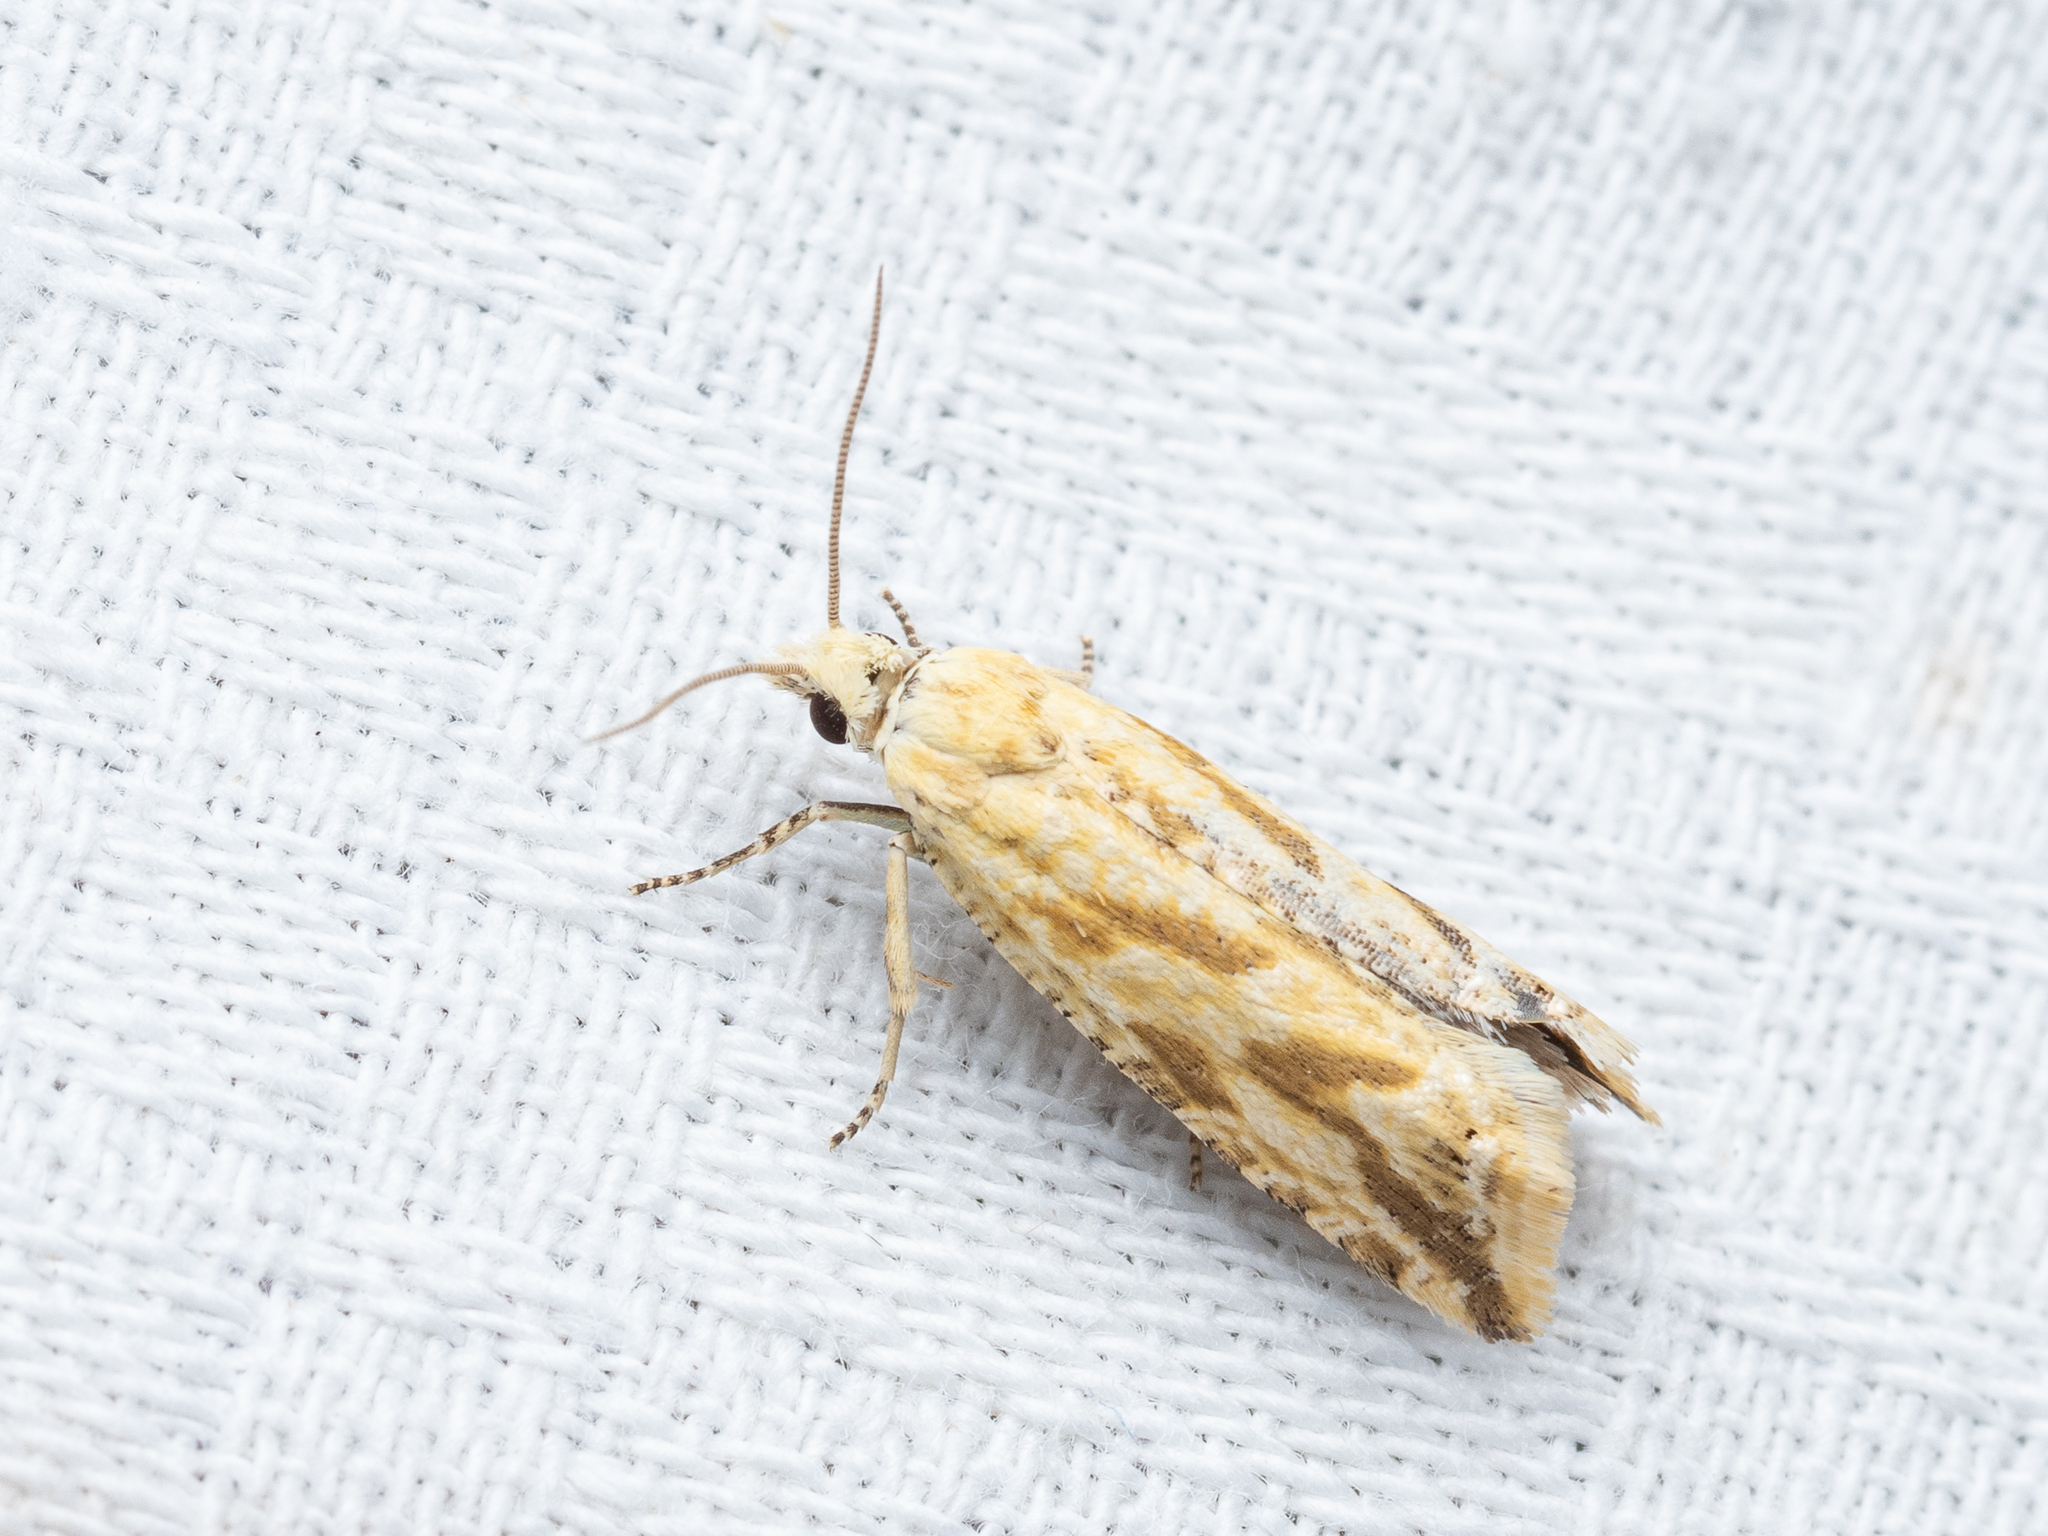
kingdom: Animalia
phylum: Arthropoda
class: Insecta
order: Lepidoptera
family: Tortricidae
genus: Thiodia
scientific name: Thiodia citrana
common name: Lemon bell
